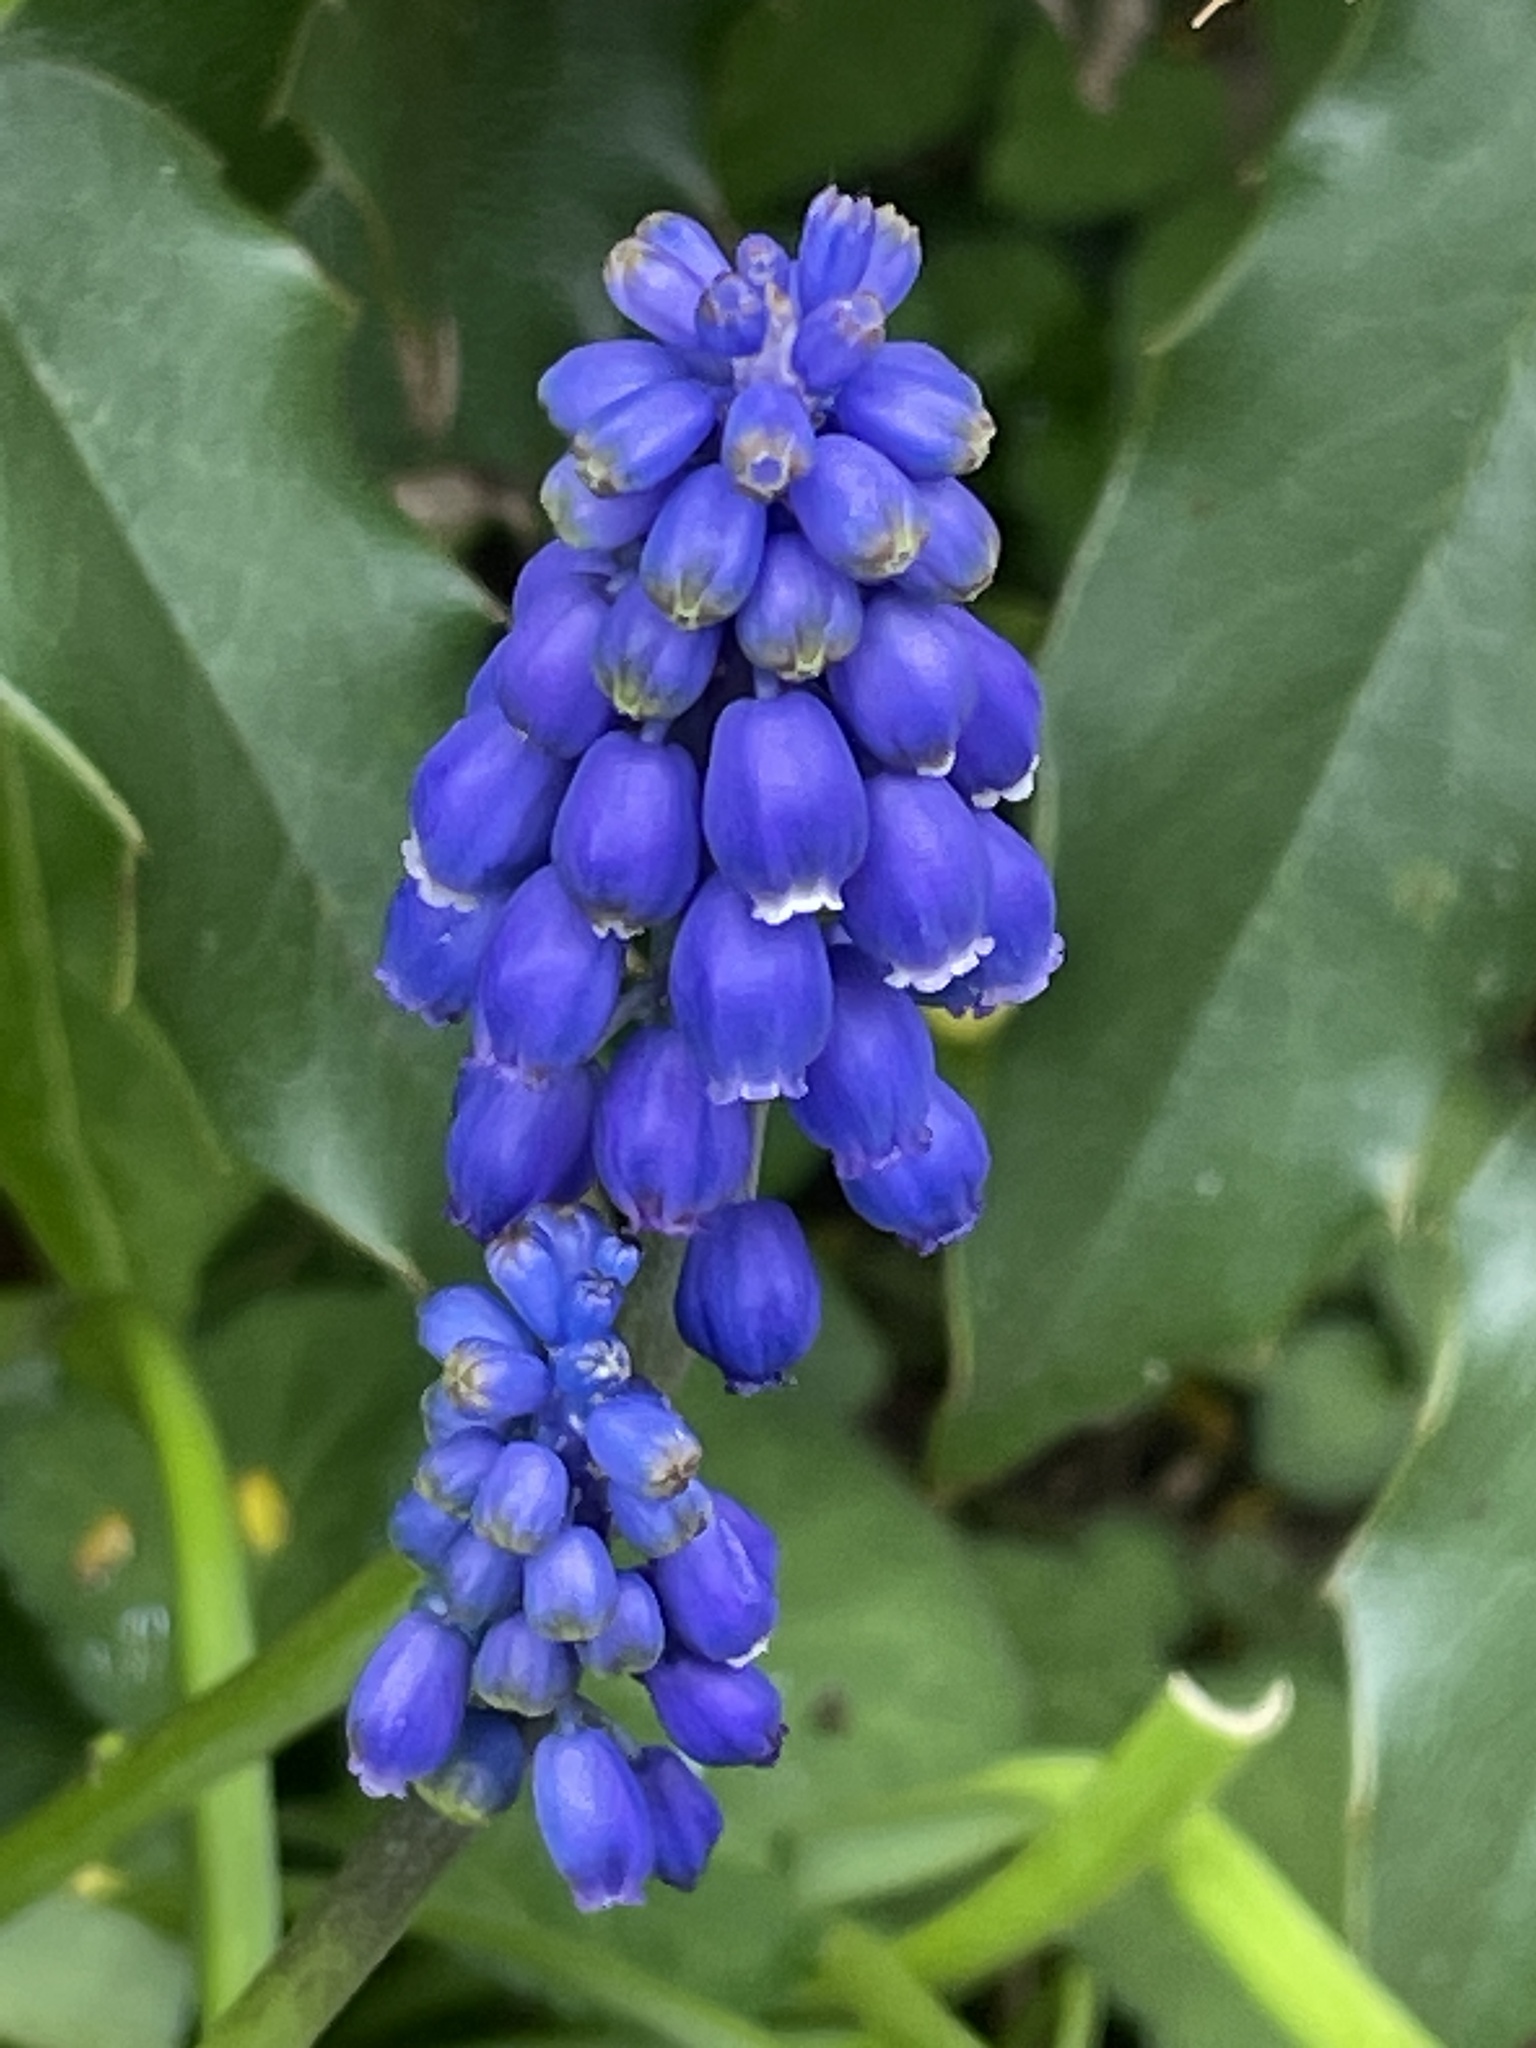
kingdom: Plantae
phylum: Tracheophyta
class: Liliopsida
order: Asparagales
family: Asparagaceae
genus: Muscari
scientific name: Muscari armeniacum
